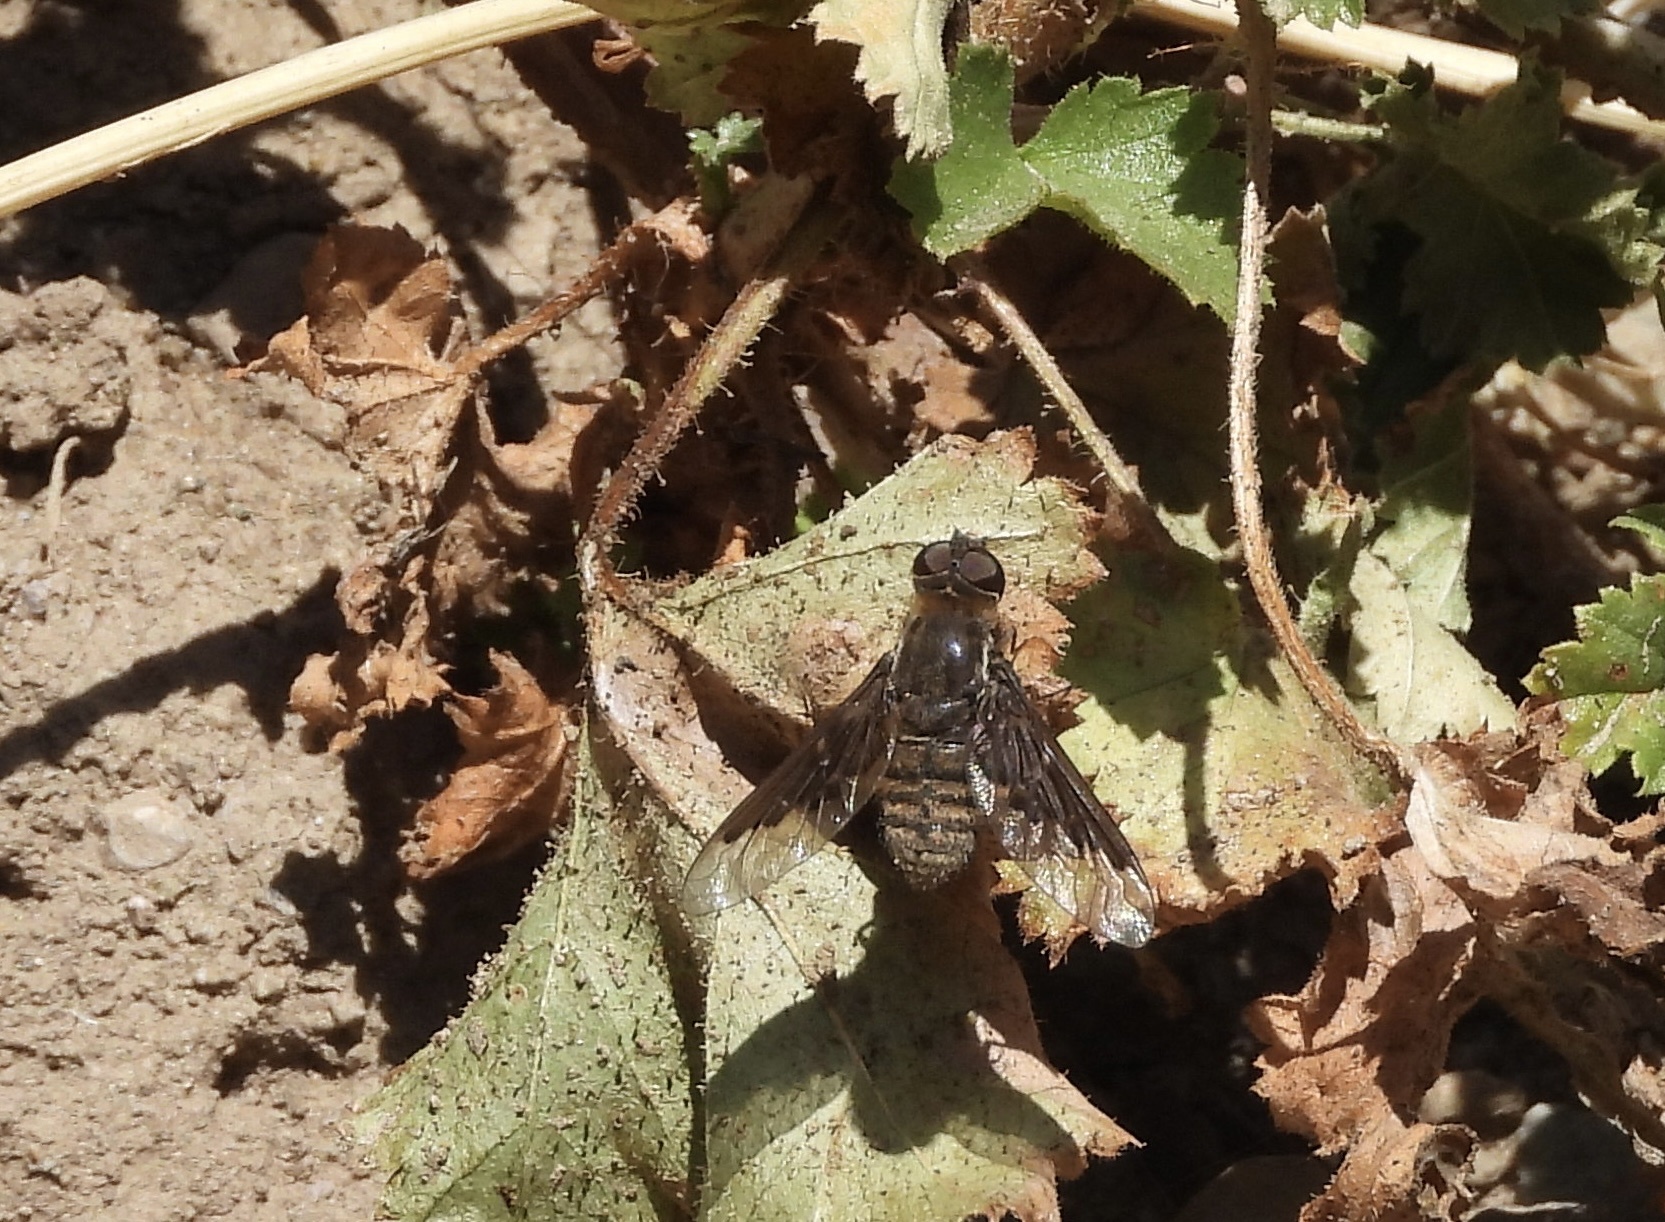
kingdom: Animalia
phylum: Arthropoda
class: Insecta
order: Diptera
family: Bombyliidae
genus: Hemipenthes
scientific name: Hemipenthes tenuirostris
